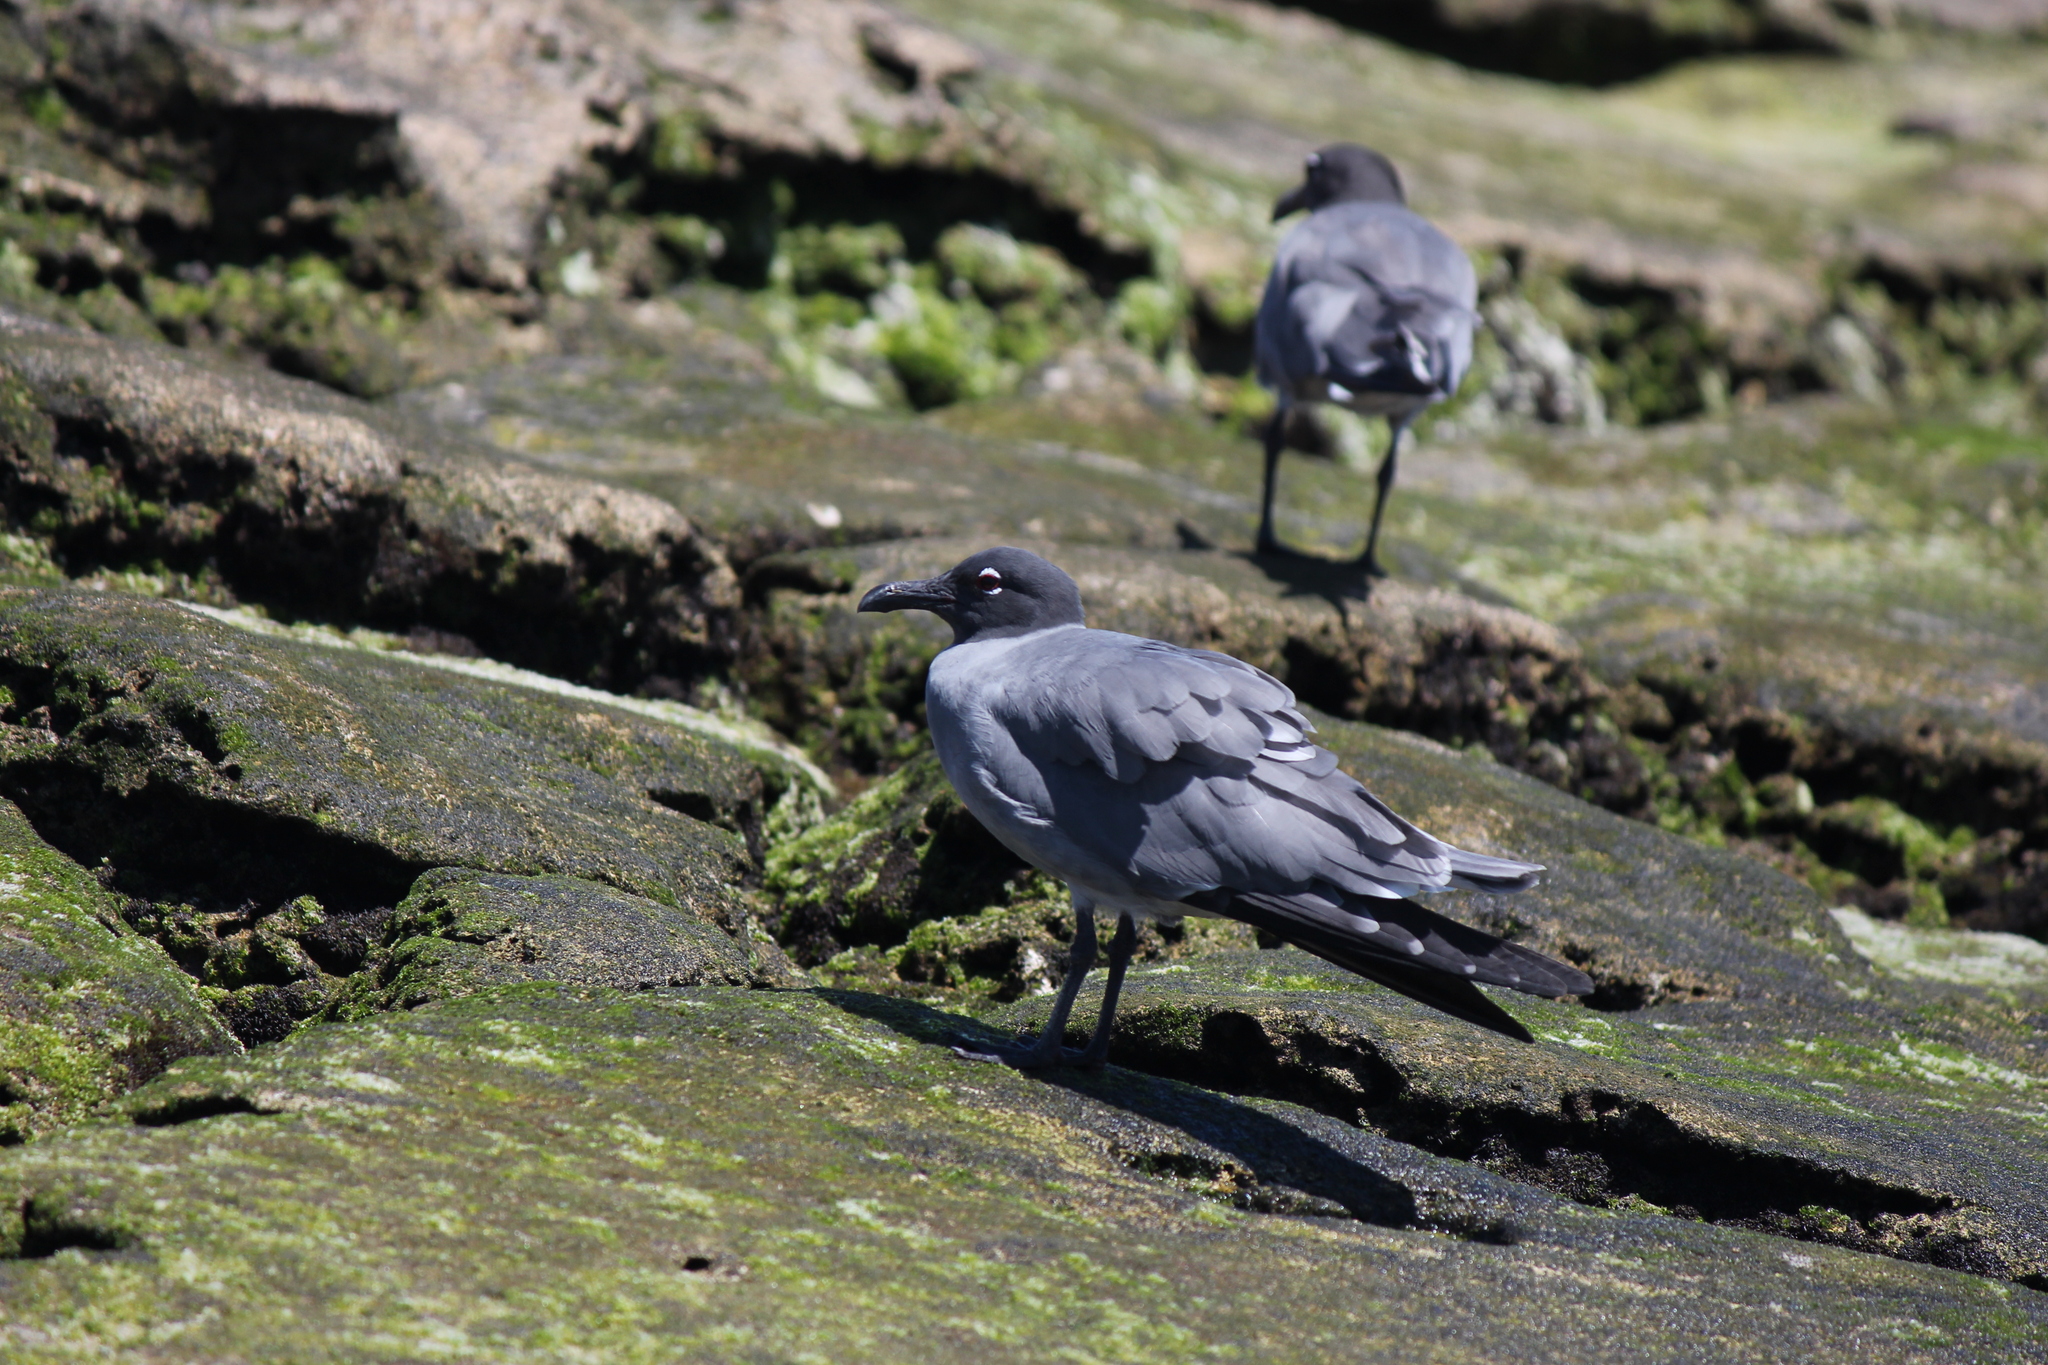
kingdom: Animalia
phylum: Chordata
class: Aves
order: Charadriiformes
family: Laridae
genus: Leucophaeus
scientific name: Leucophaeus fuliginosus
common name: Lava gull
